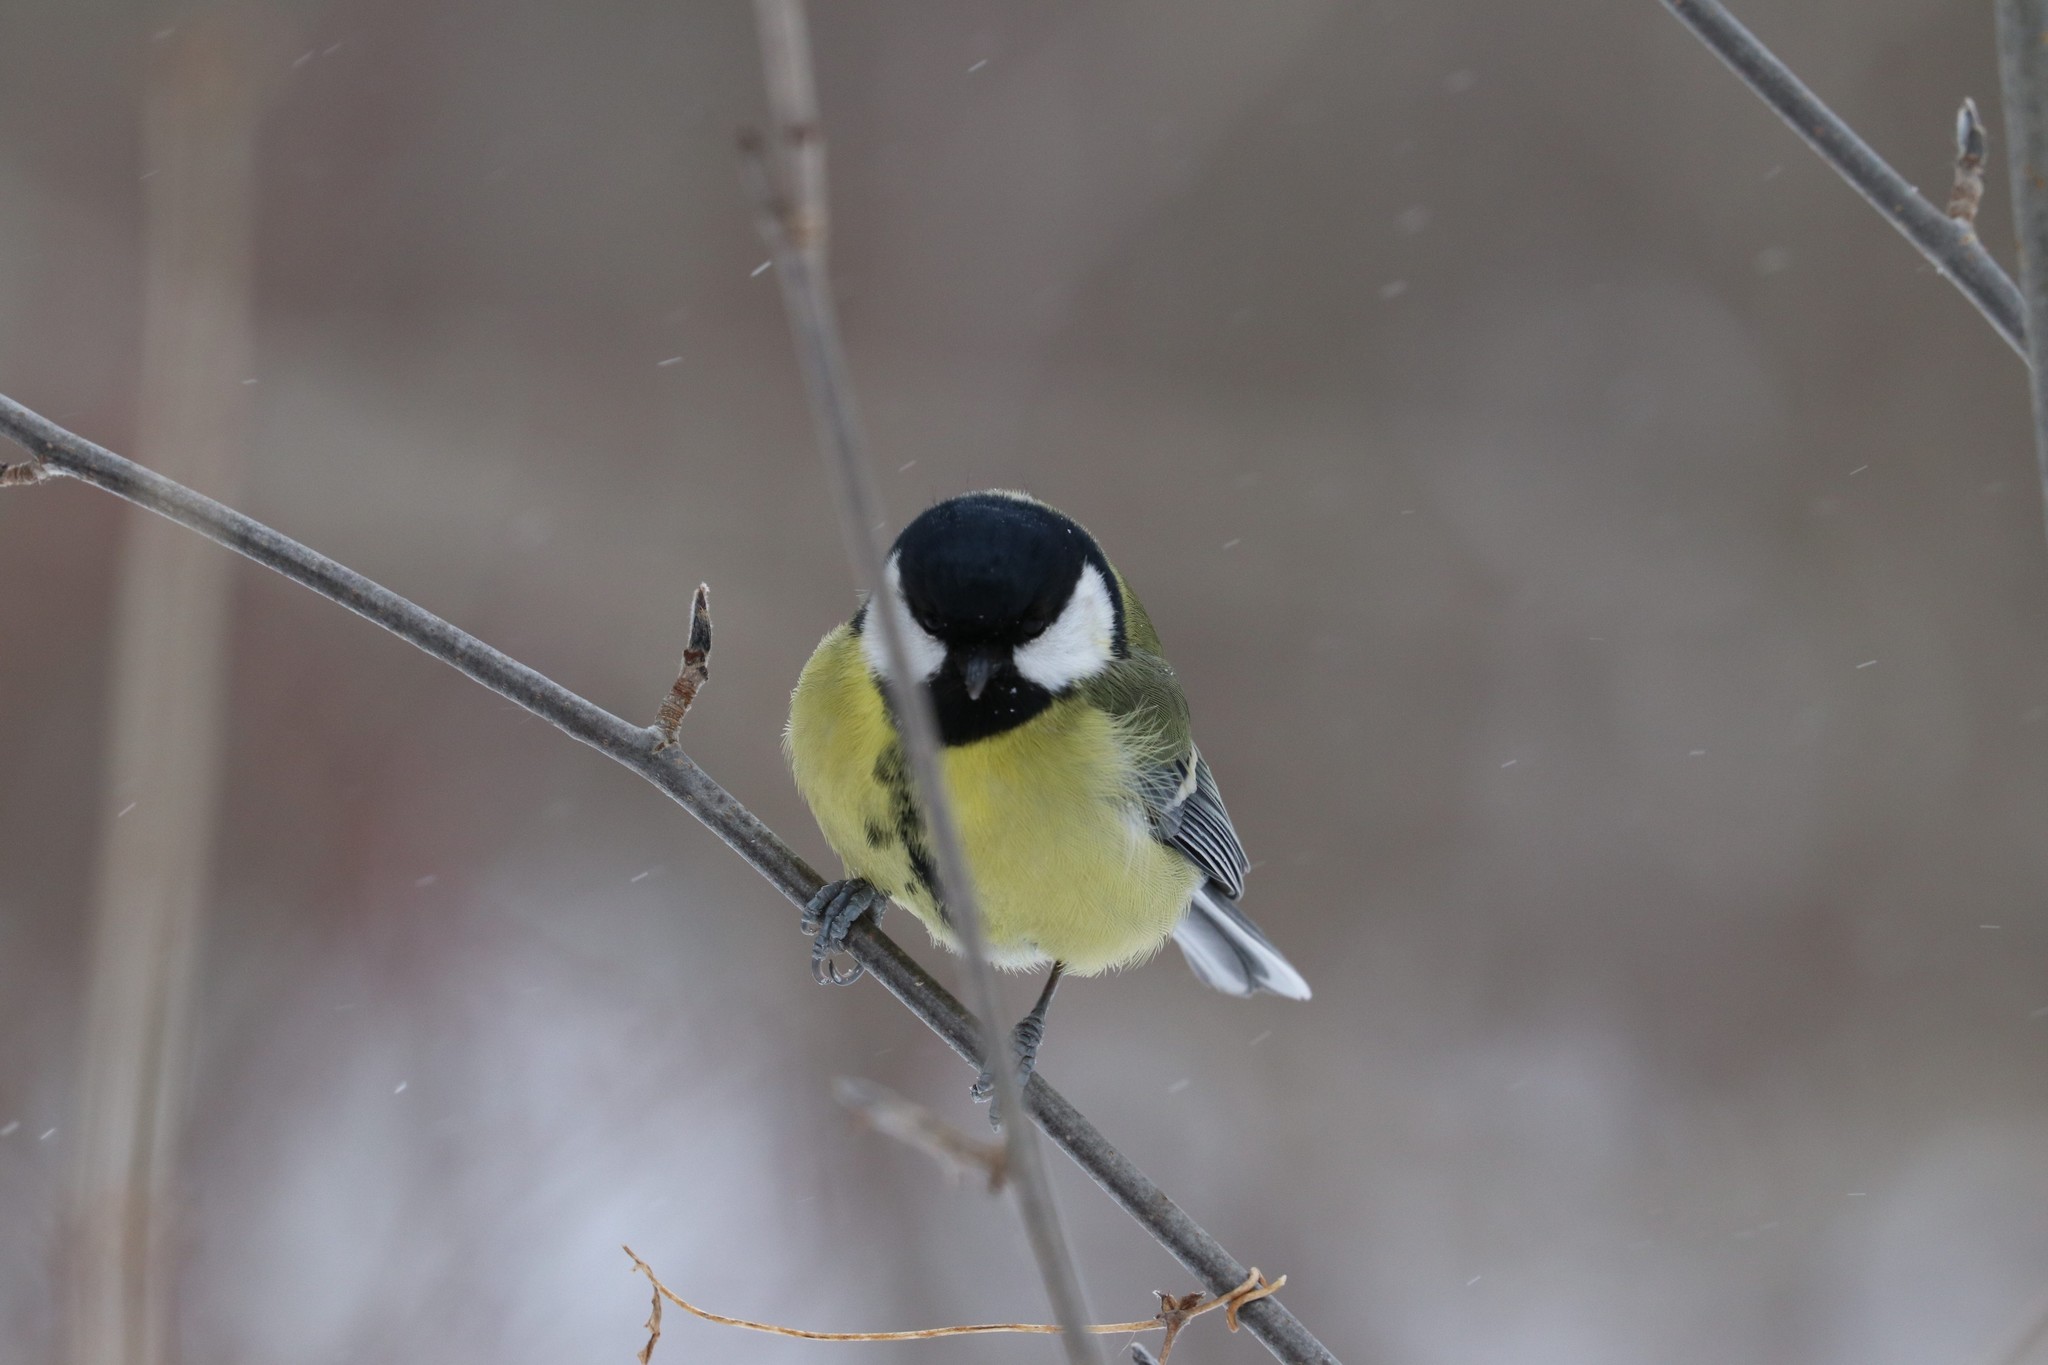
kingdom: Animalia
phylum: Chordata
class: Aves
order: Passeriformes
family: Paridae
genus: Parus
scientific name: Parus major
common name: Great tit
